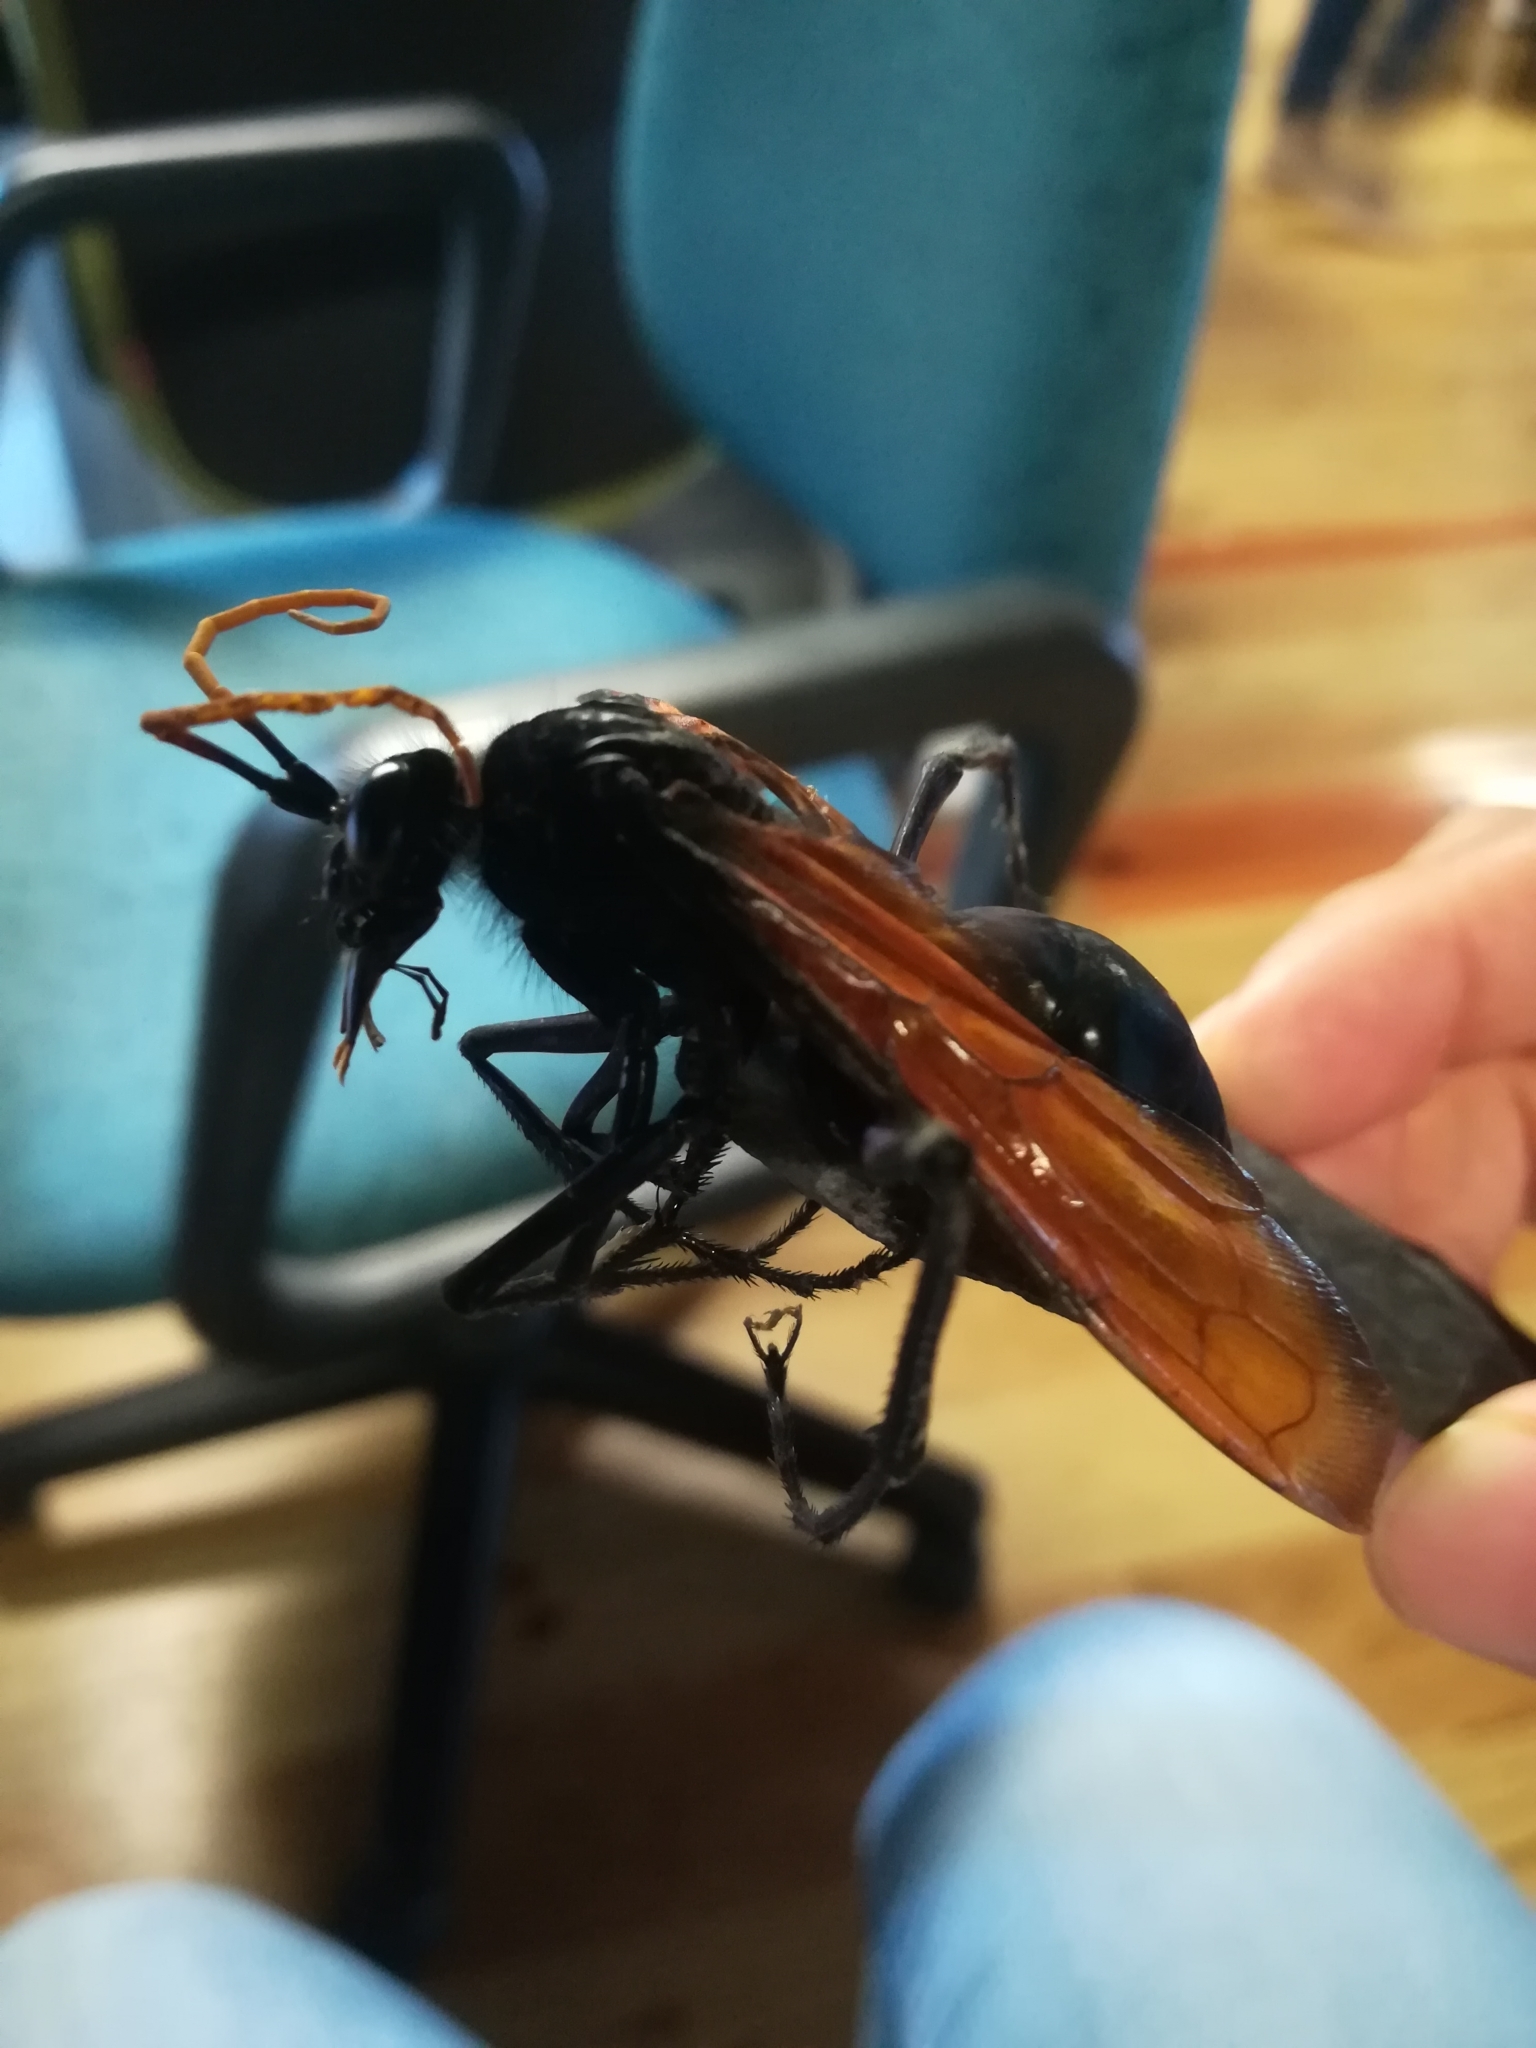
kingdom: Animalia
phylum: Arthropoda
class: Insecta
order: Hymenoptera
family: Pompilidae
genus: Pepsis
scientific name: Pepsis mildei
